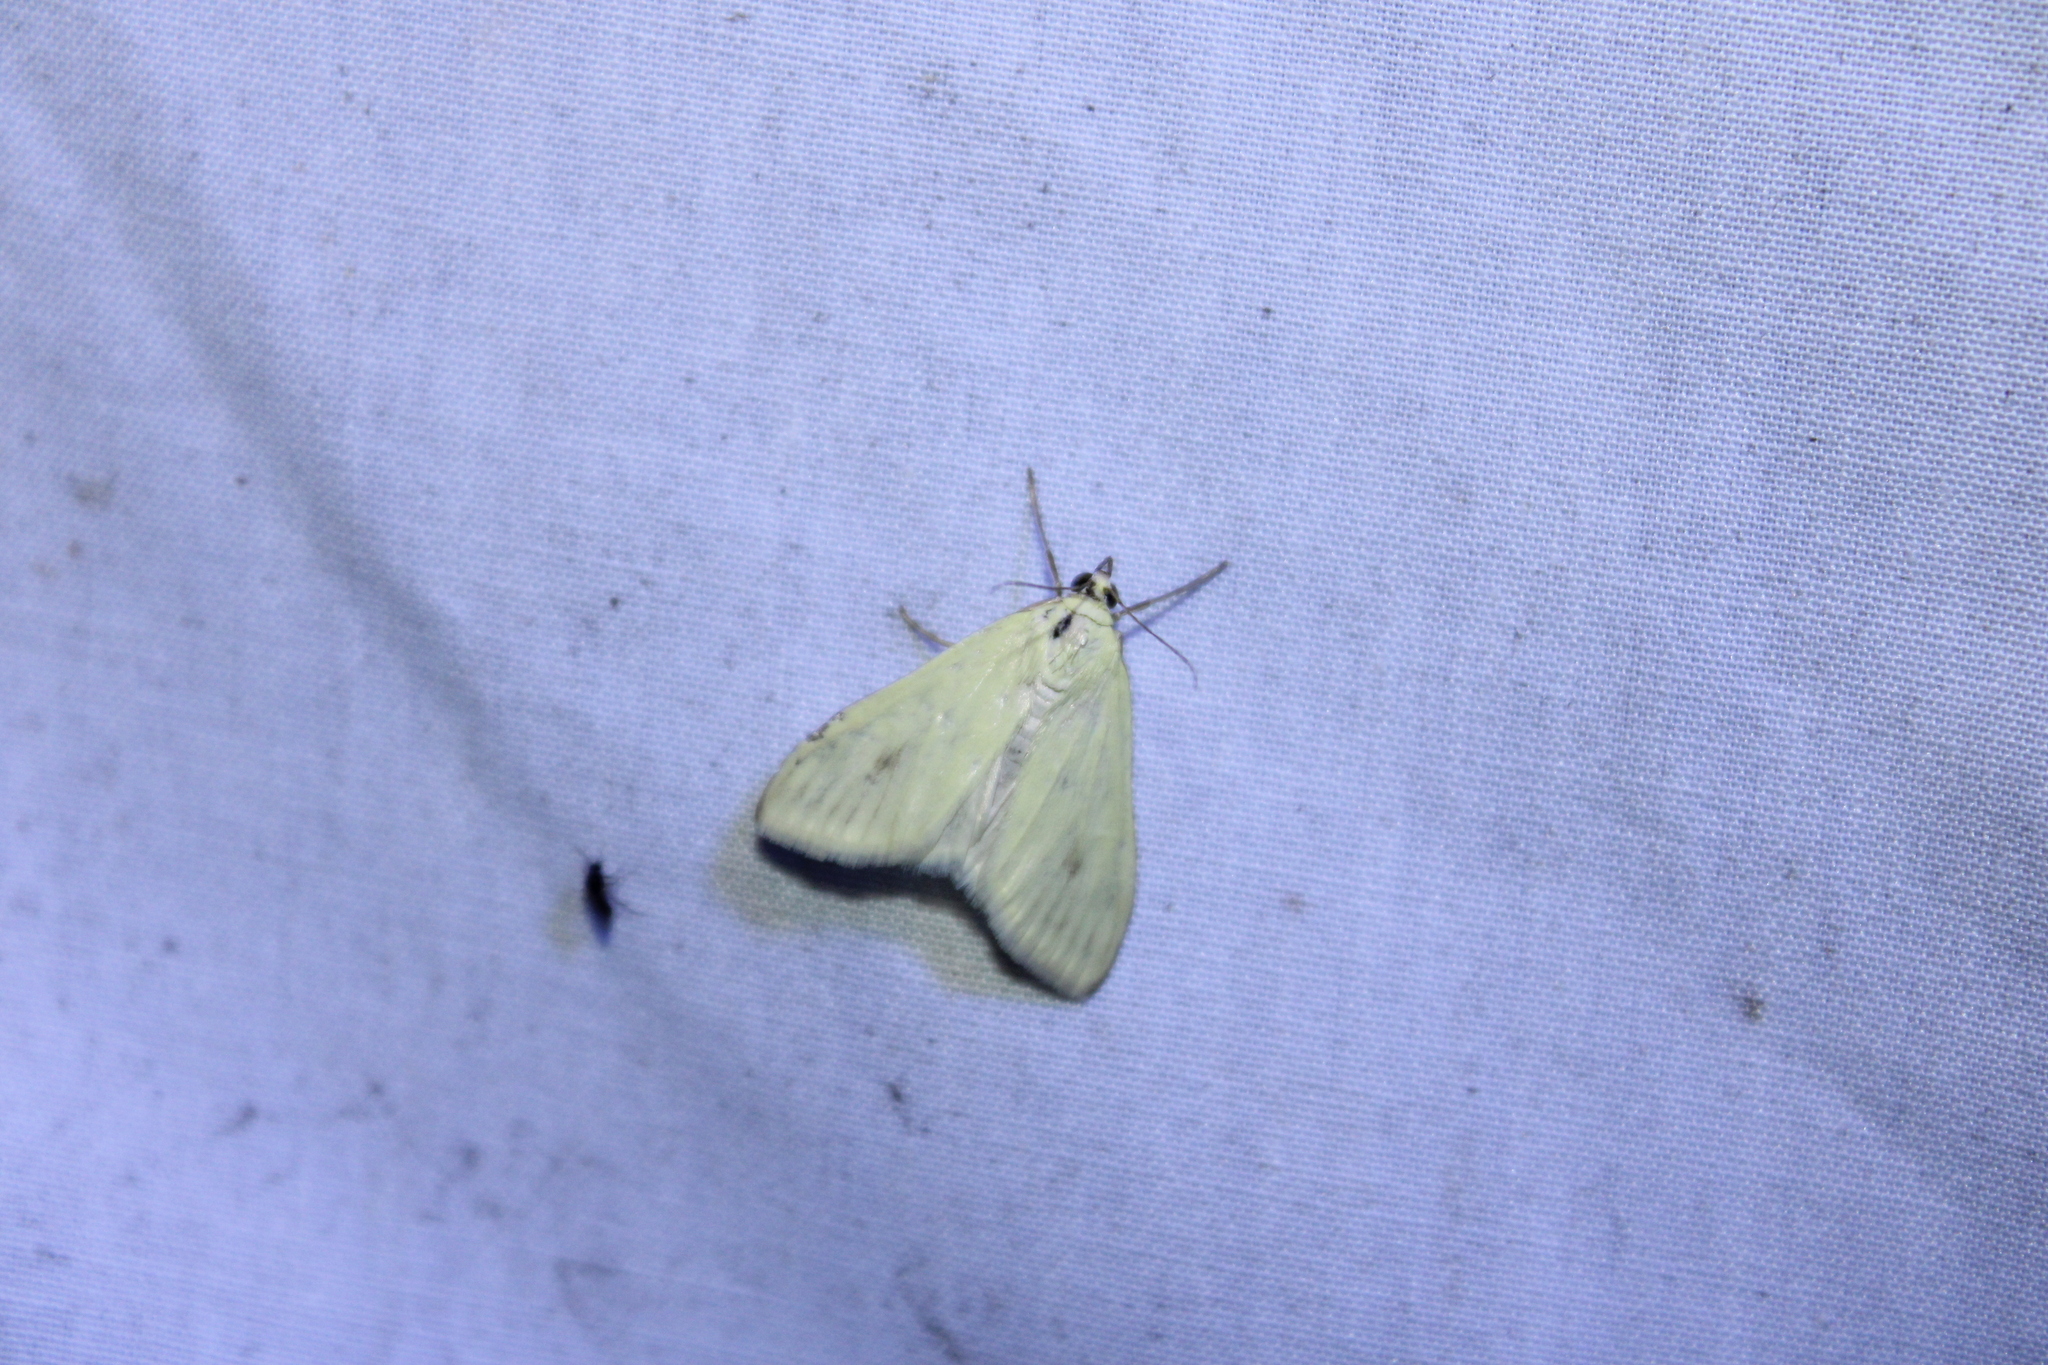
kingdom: Animalia
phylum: Arthropoda
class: Insecta
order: Lepidoptera
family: Crambidae
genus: Sitochroa
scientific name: Sitochroa palealis
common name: Greenish-yellow sitochroa moth
